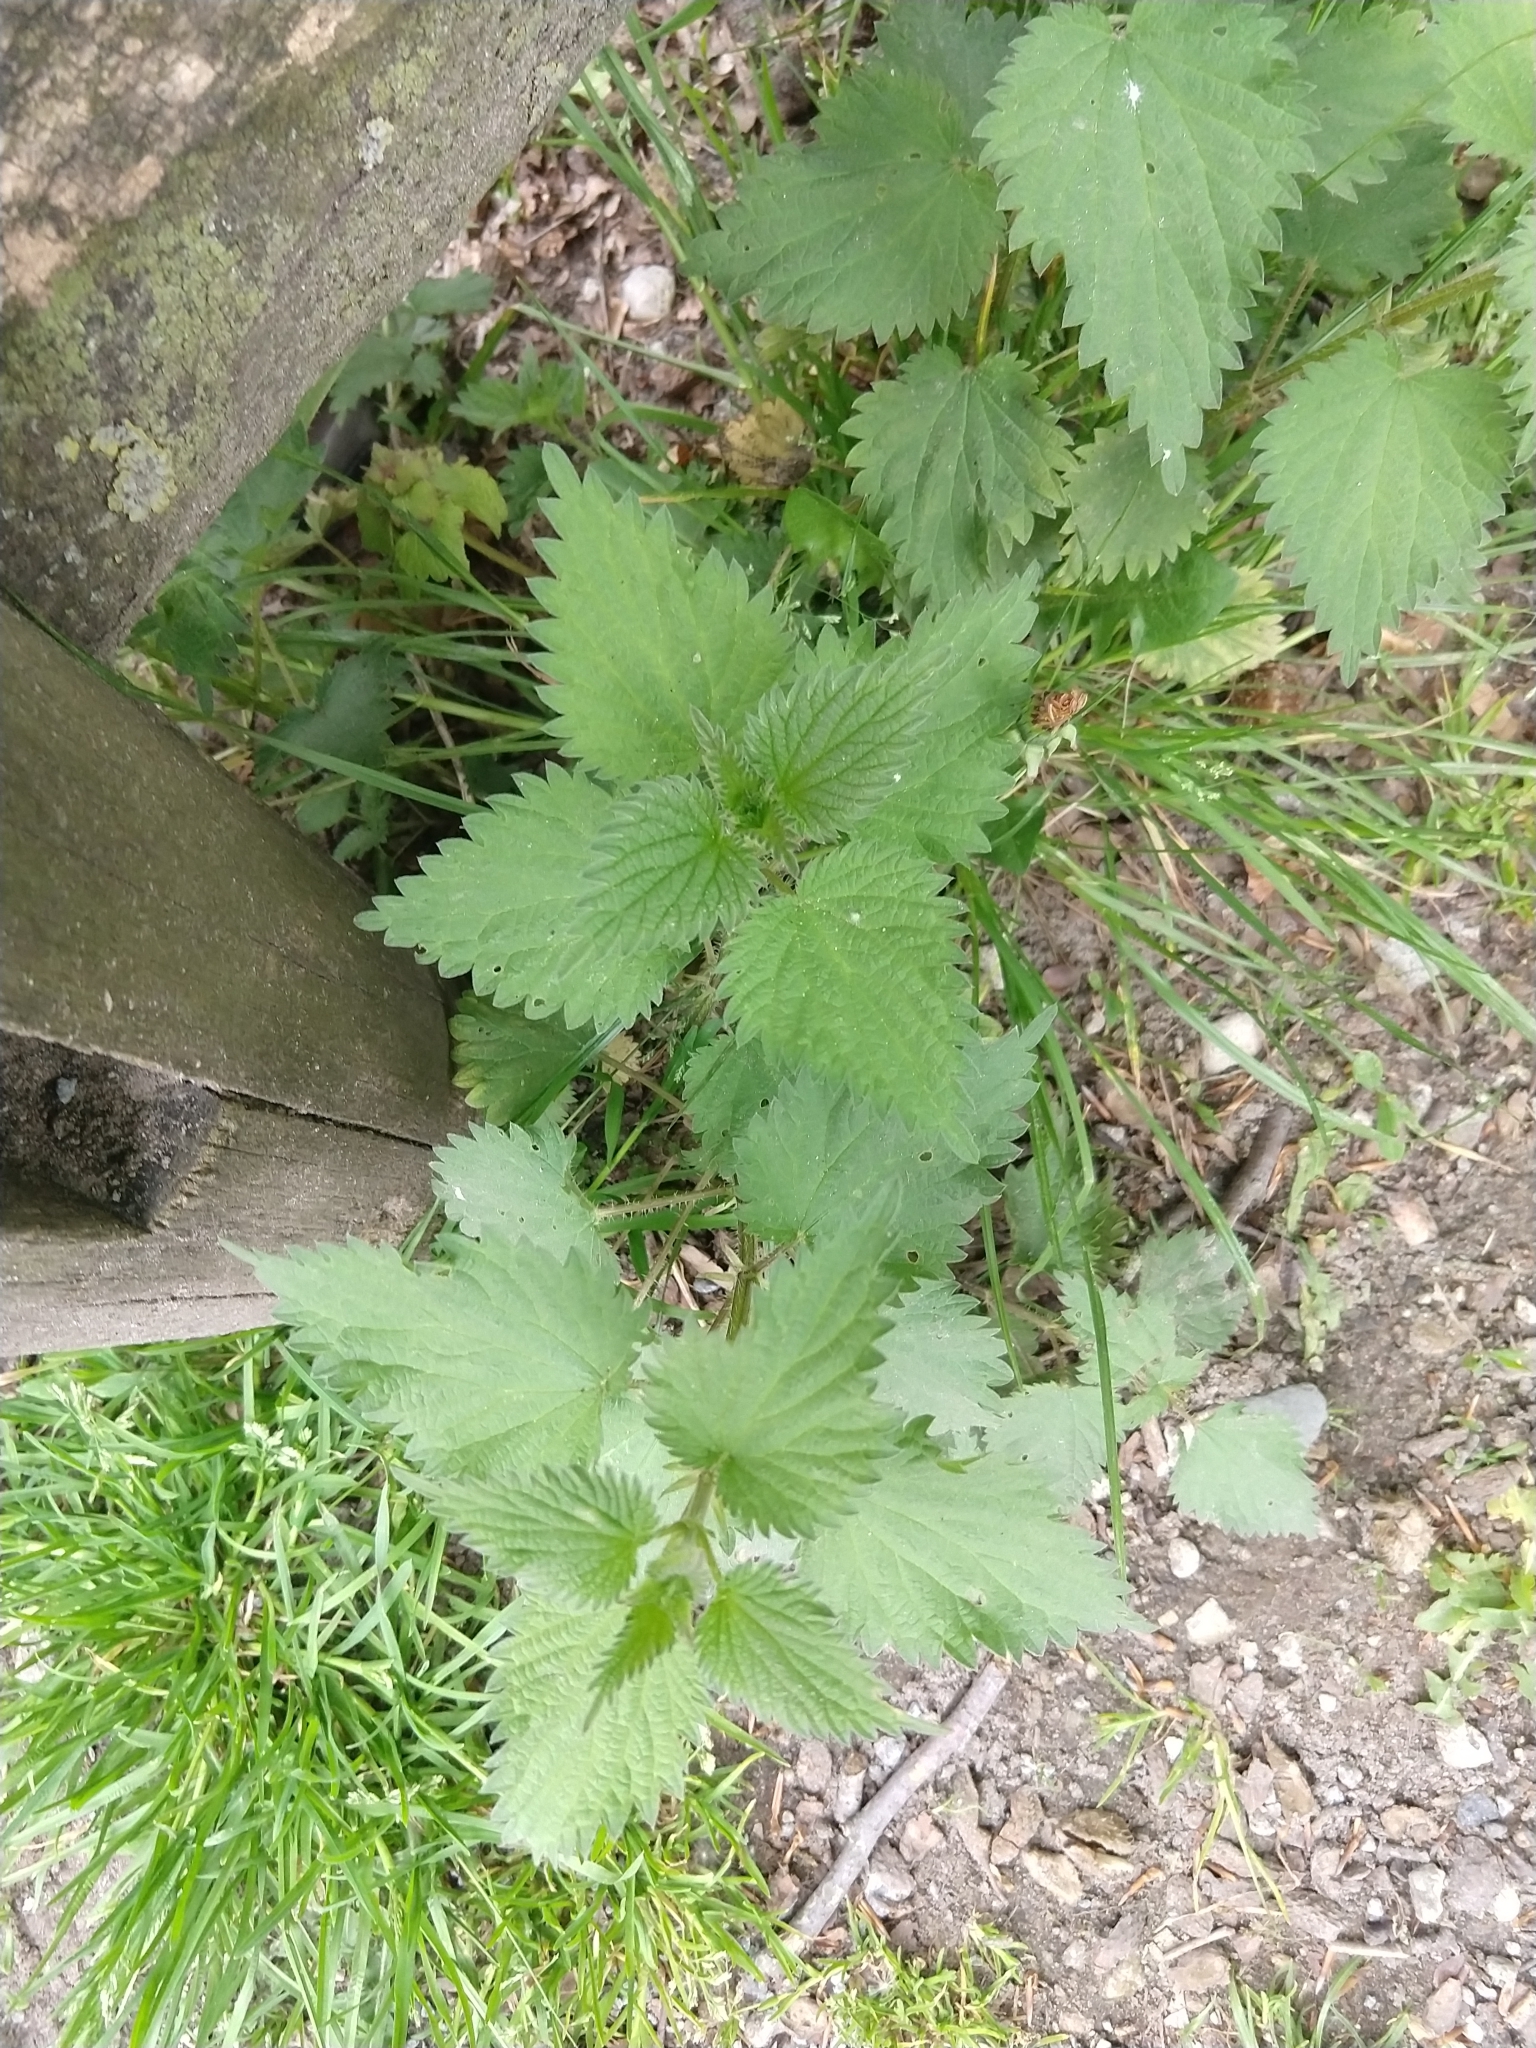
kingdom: Plantae
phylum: Tracheophyta
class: Magnoliopsida
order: Rosales
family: Urticaceae
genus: Urtica
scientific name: Urtica dioica
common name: Common nettle
